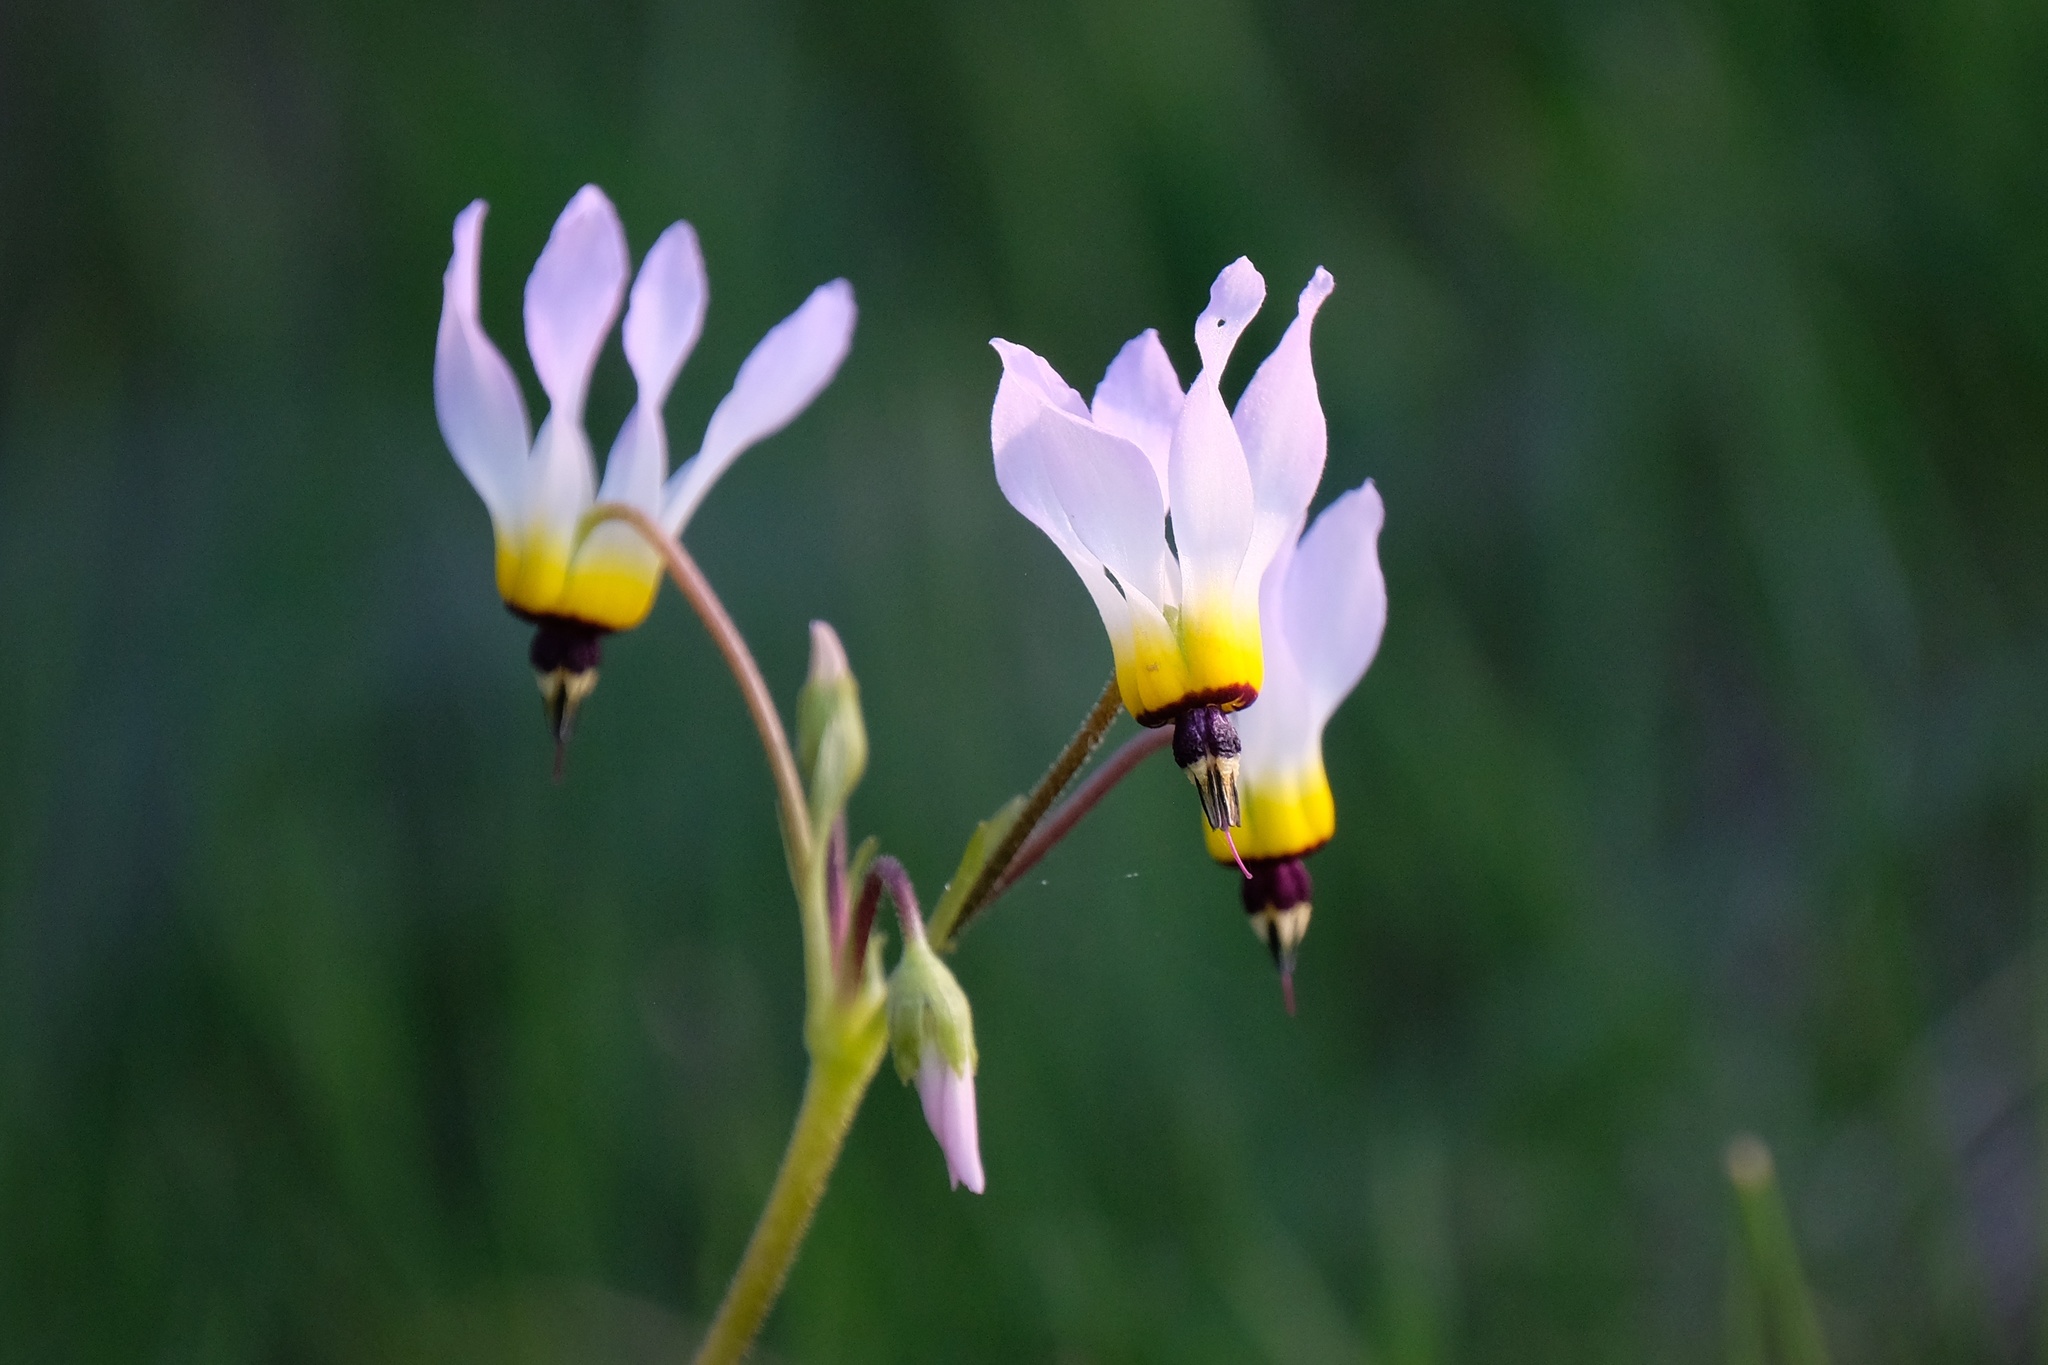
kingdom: Plantae
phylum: Tracheophyta
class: Magnoliopsida
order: Ericales
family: Primulaceae
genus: Dodecatheon
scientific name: Dodecatheon clevelandii
